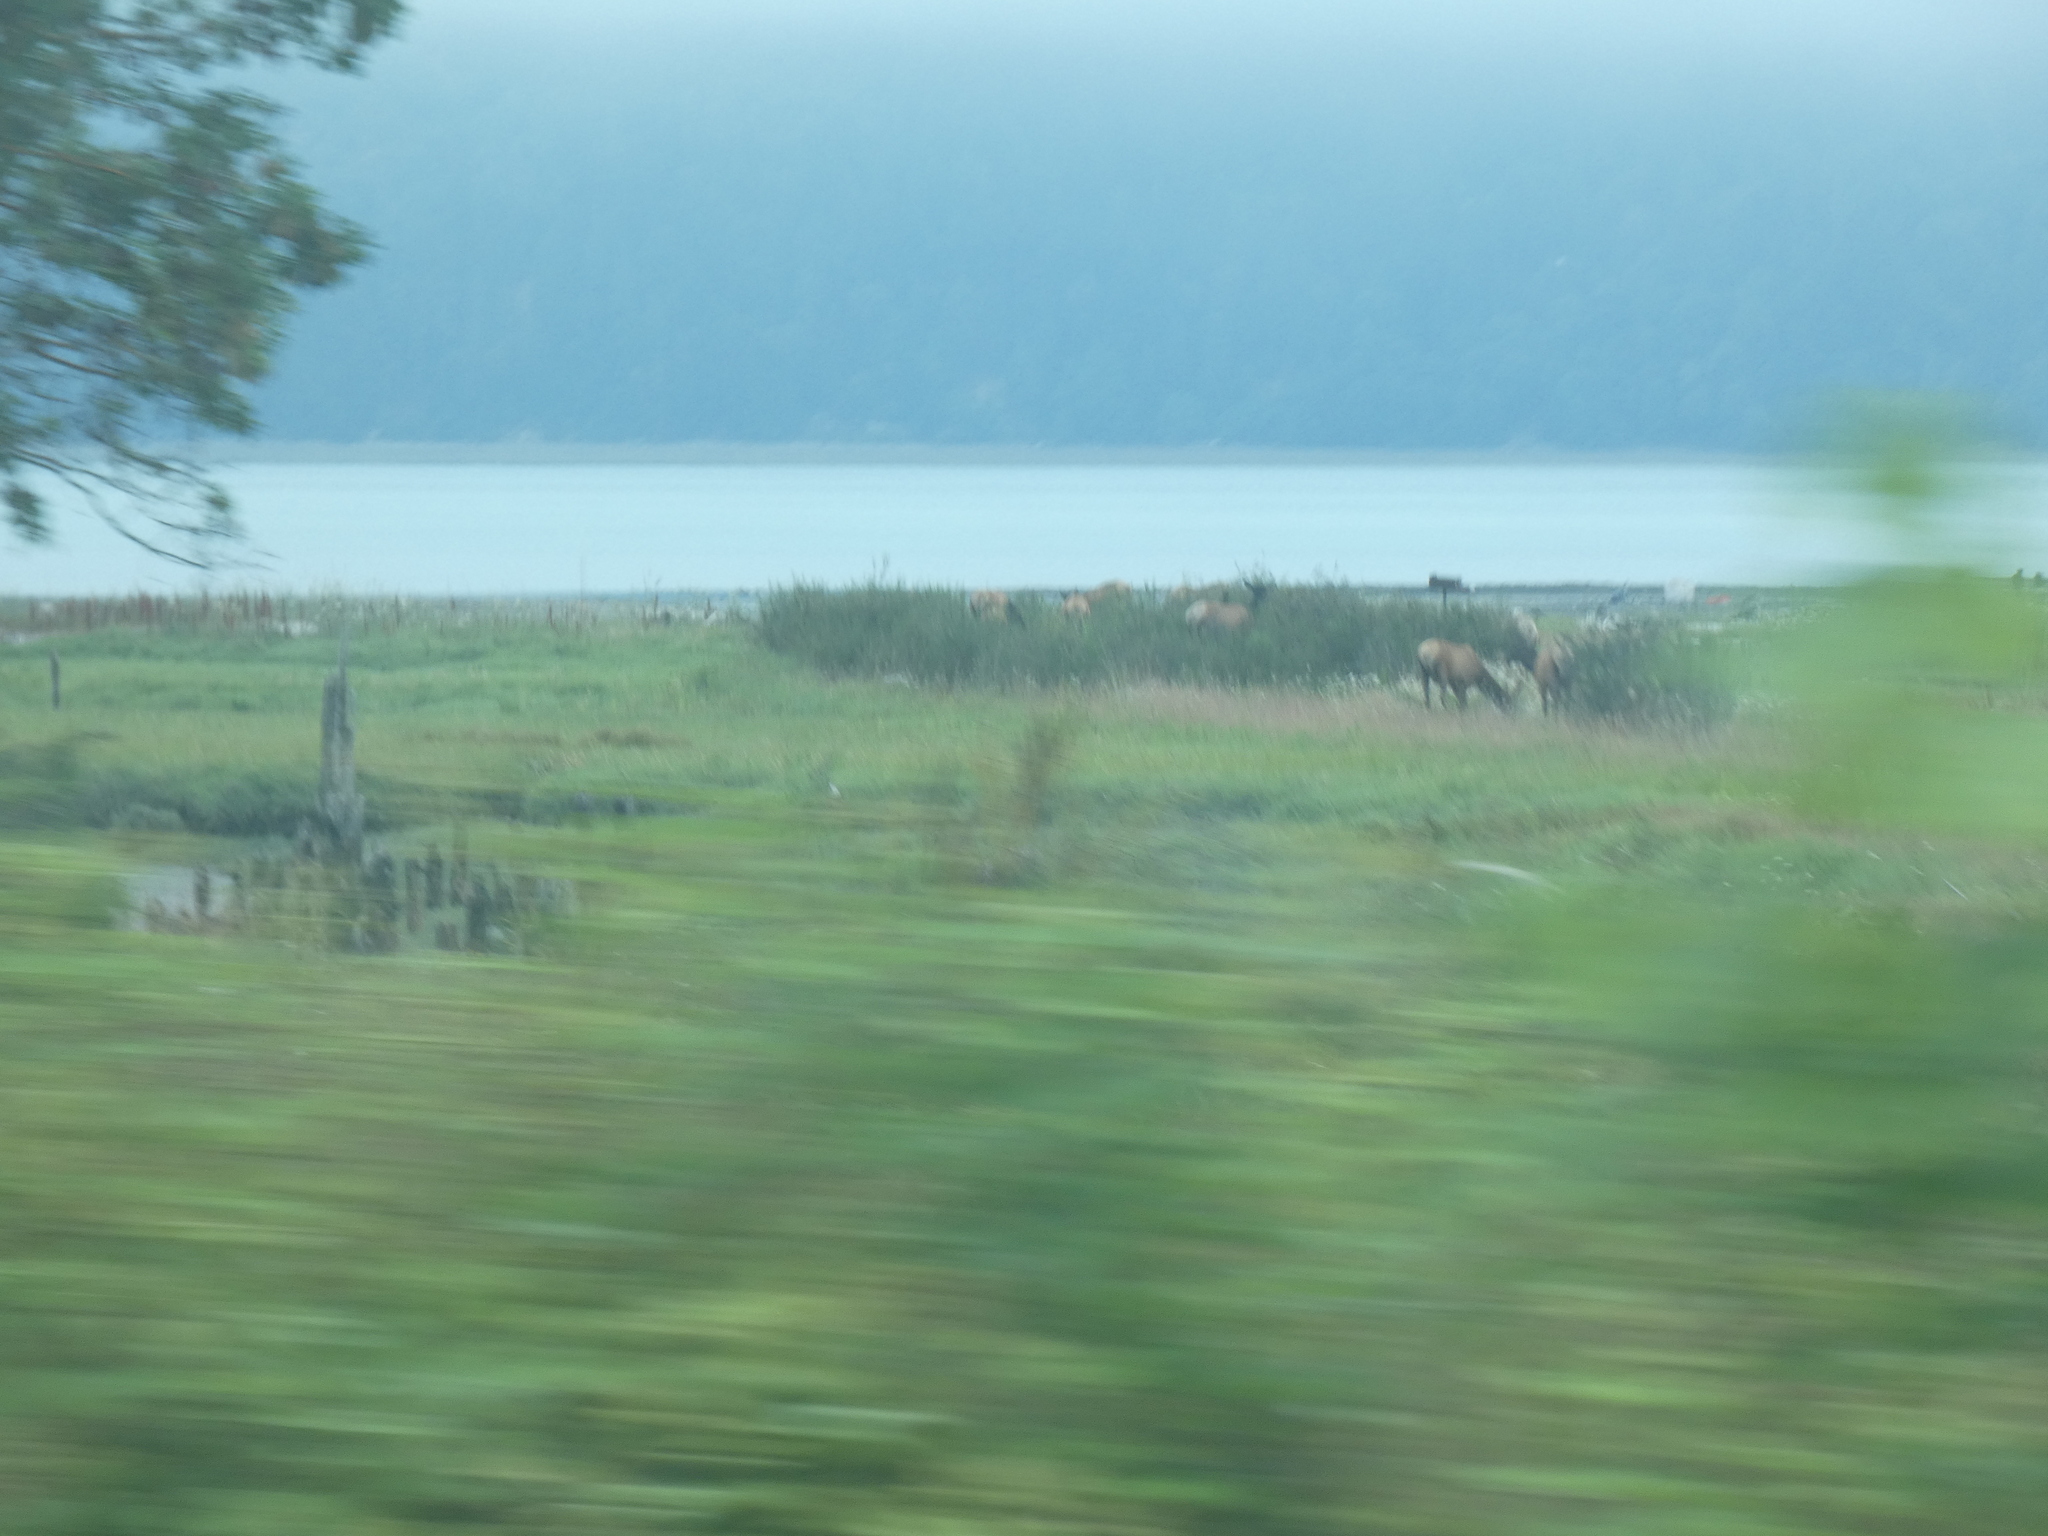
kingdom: Animalia
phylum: Chordata
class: Mammalia
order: Artiodactyla
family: Cervidae
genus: Cervus
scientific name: Cervus elaphus
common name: Red deer
